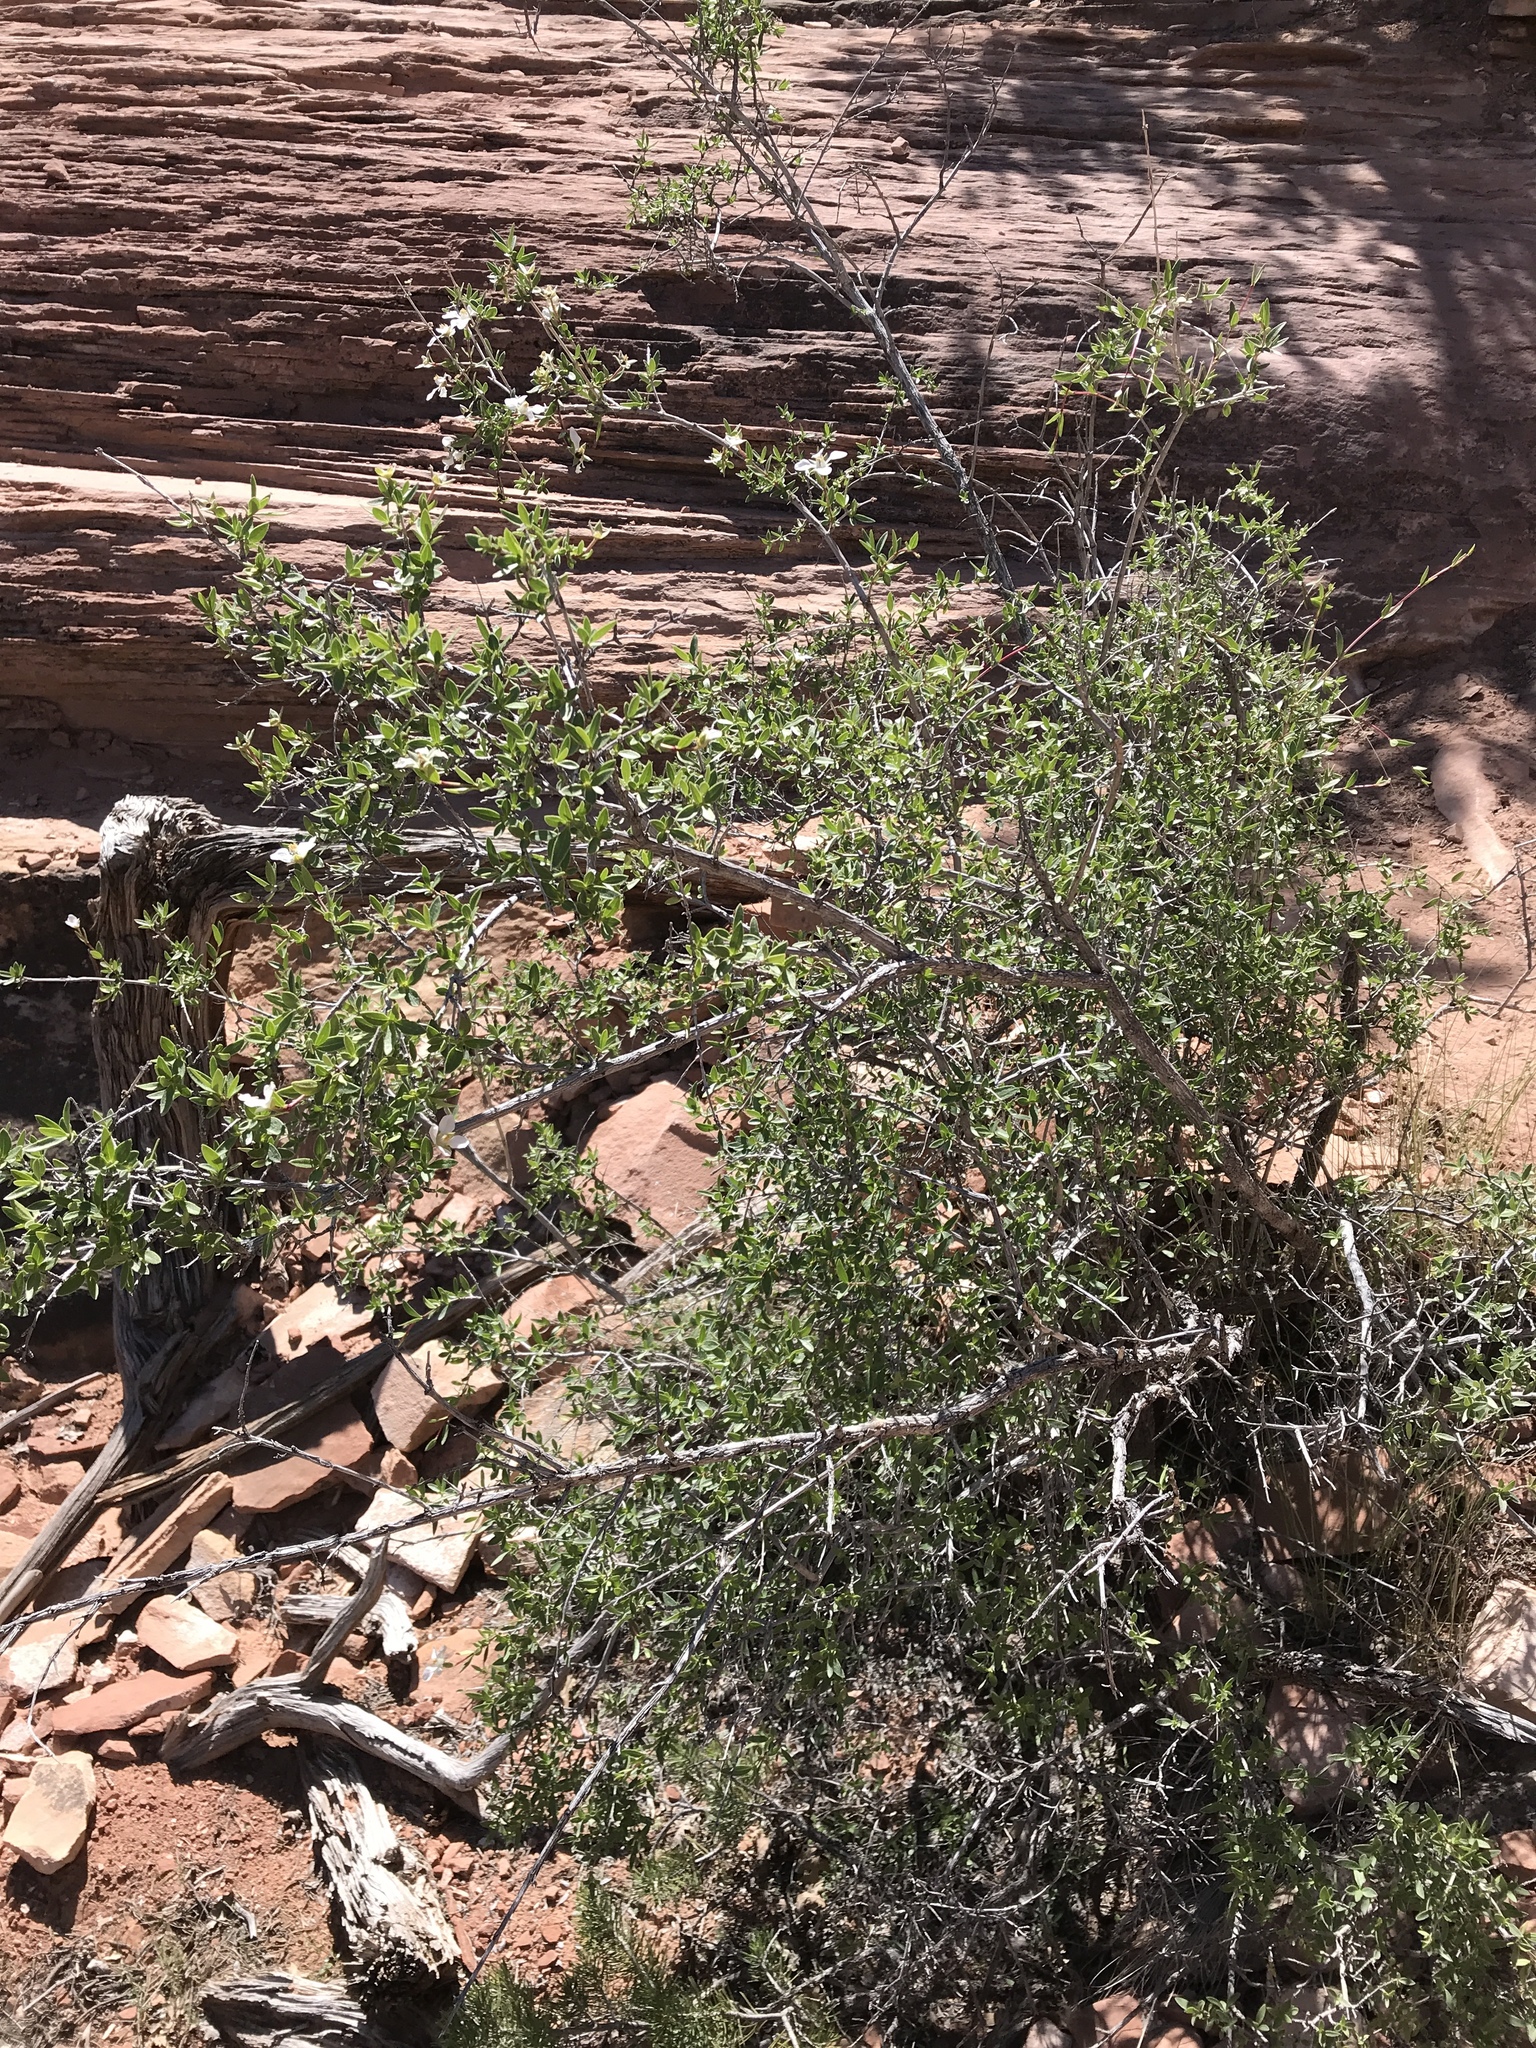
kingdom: Plantae
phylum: Tracheophyta
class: Magnoliopsida
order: Cornales
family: Hydrangeaceae
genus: Fendlera
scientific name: Fendlera rupicola
